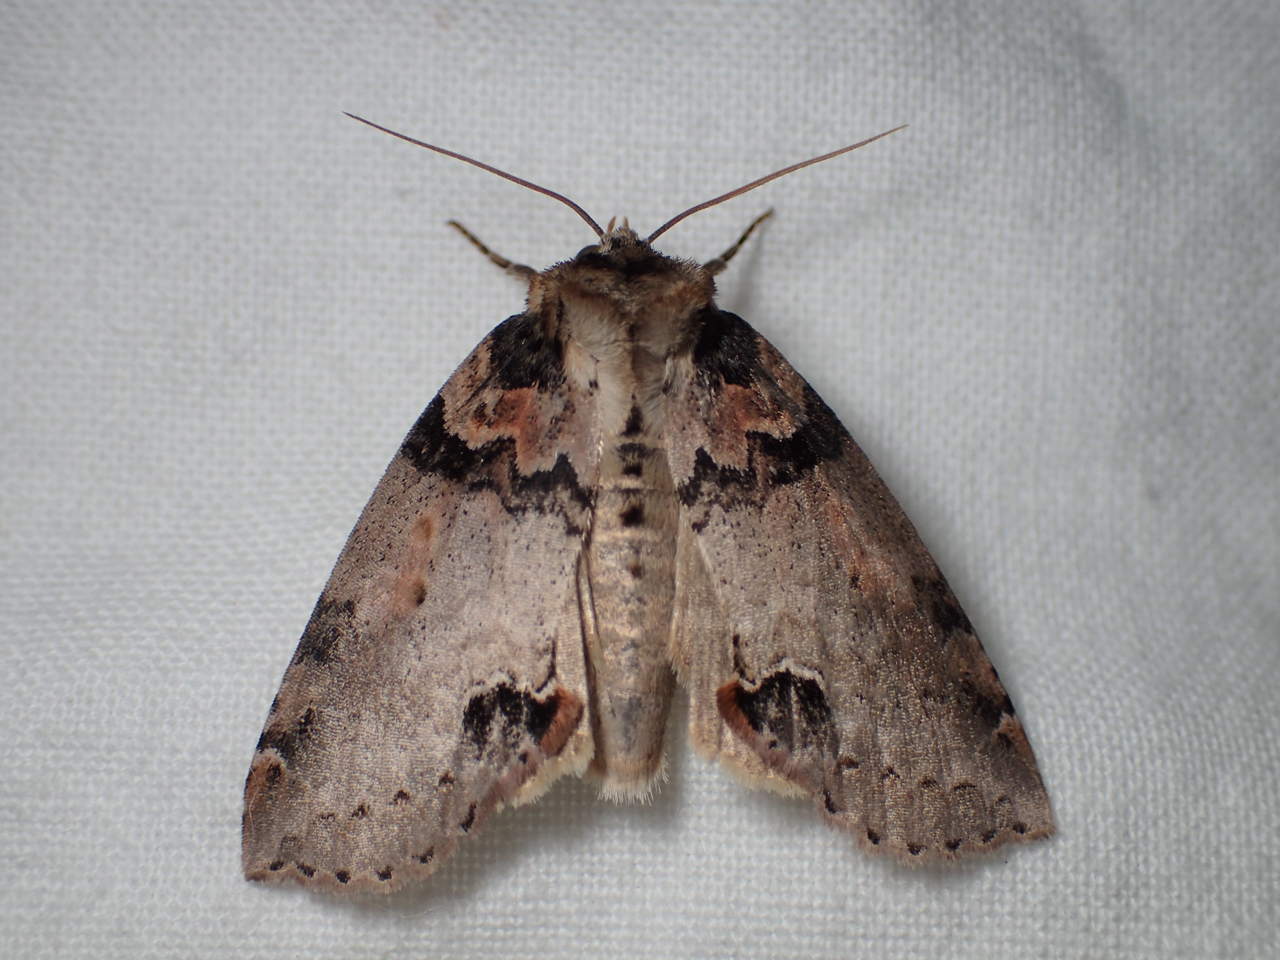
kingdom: Animalia
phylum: Arthropoda
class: Insecta
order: Lepidoptera
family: Drepanidae
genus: Pseudothyatira
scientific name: Pseudothyatira cymatophoroides
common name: Tufted thyatirid moth
